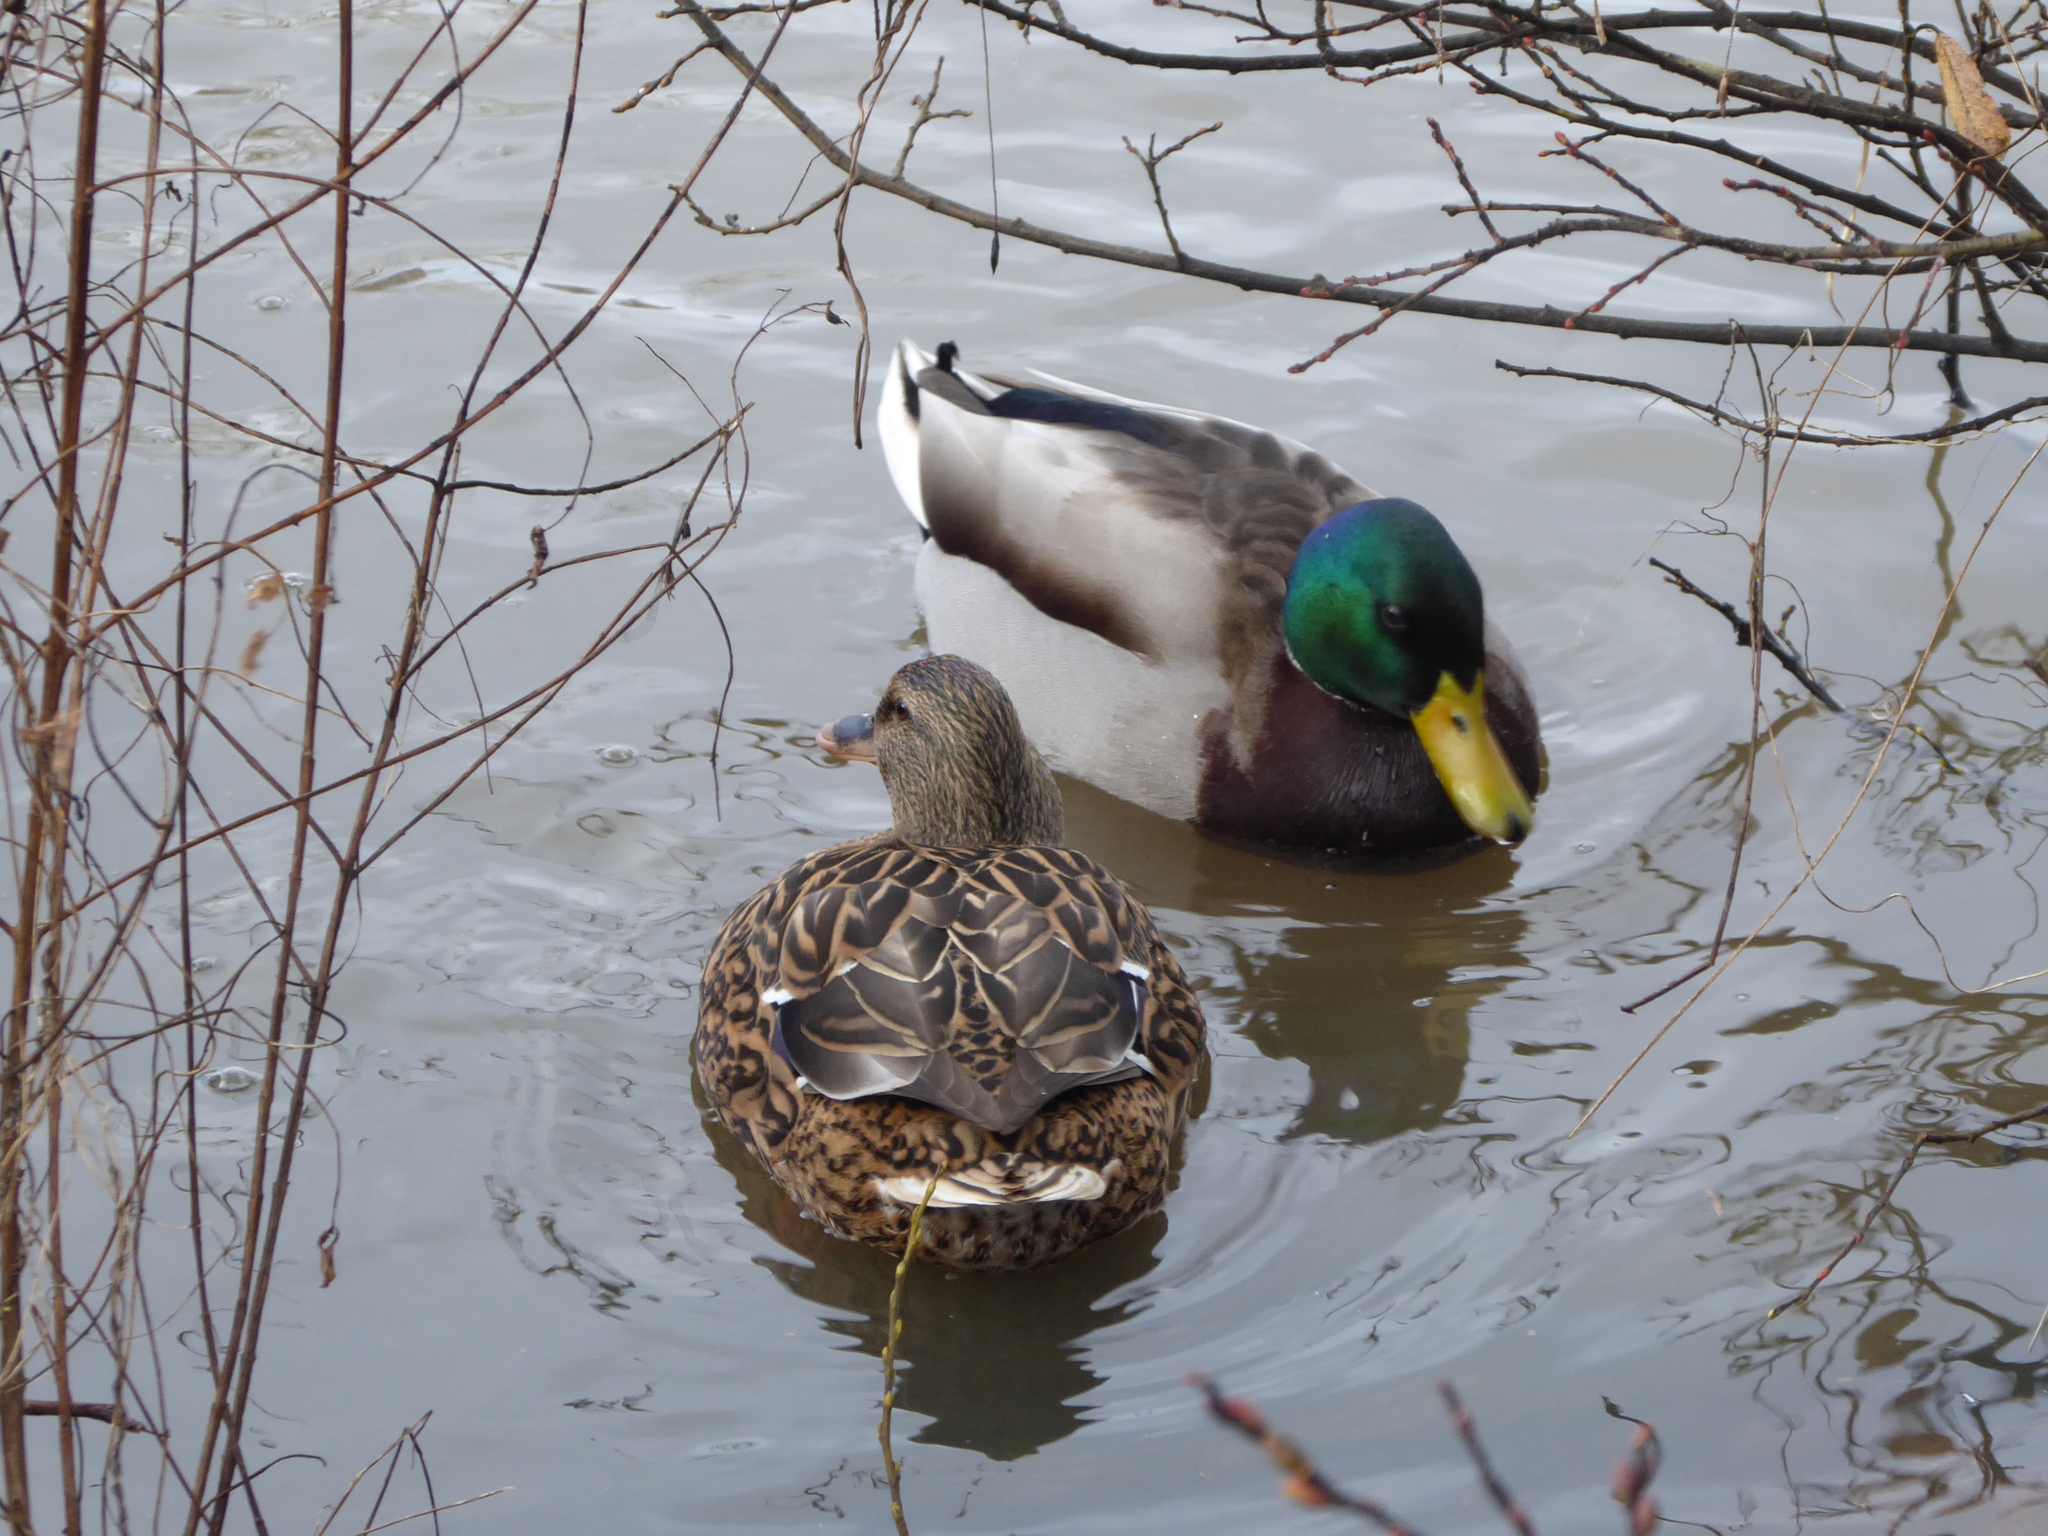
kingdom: Animalia
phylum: Chordata
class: Aves
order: Anseriformes
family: Anatidae
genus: Anas
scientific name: Anas platyrhynchos
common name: Mallard
